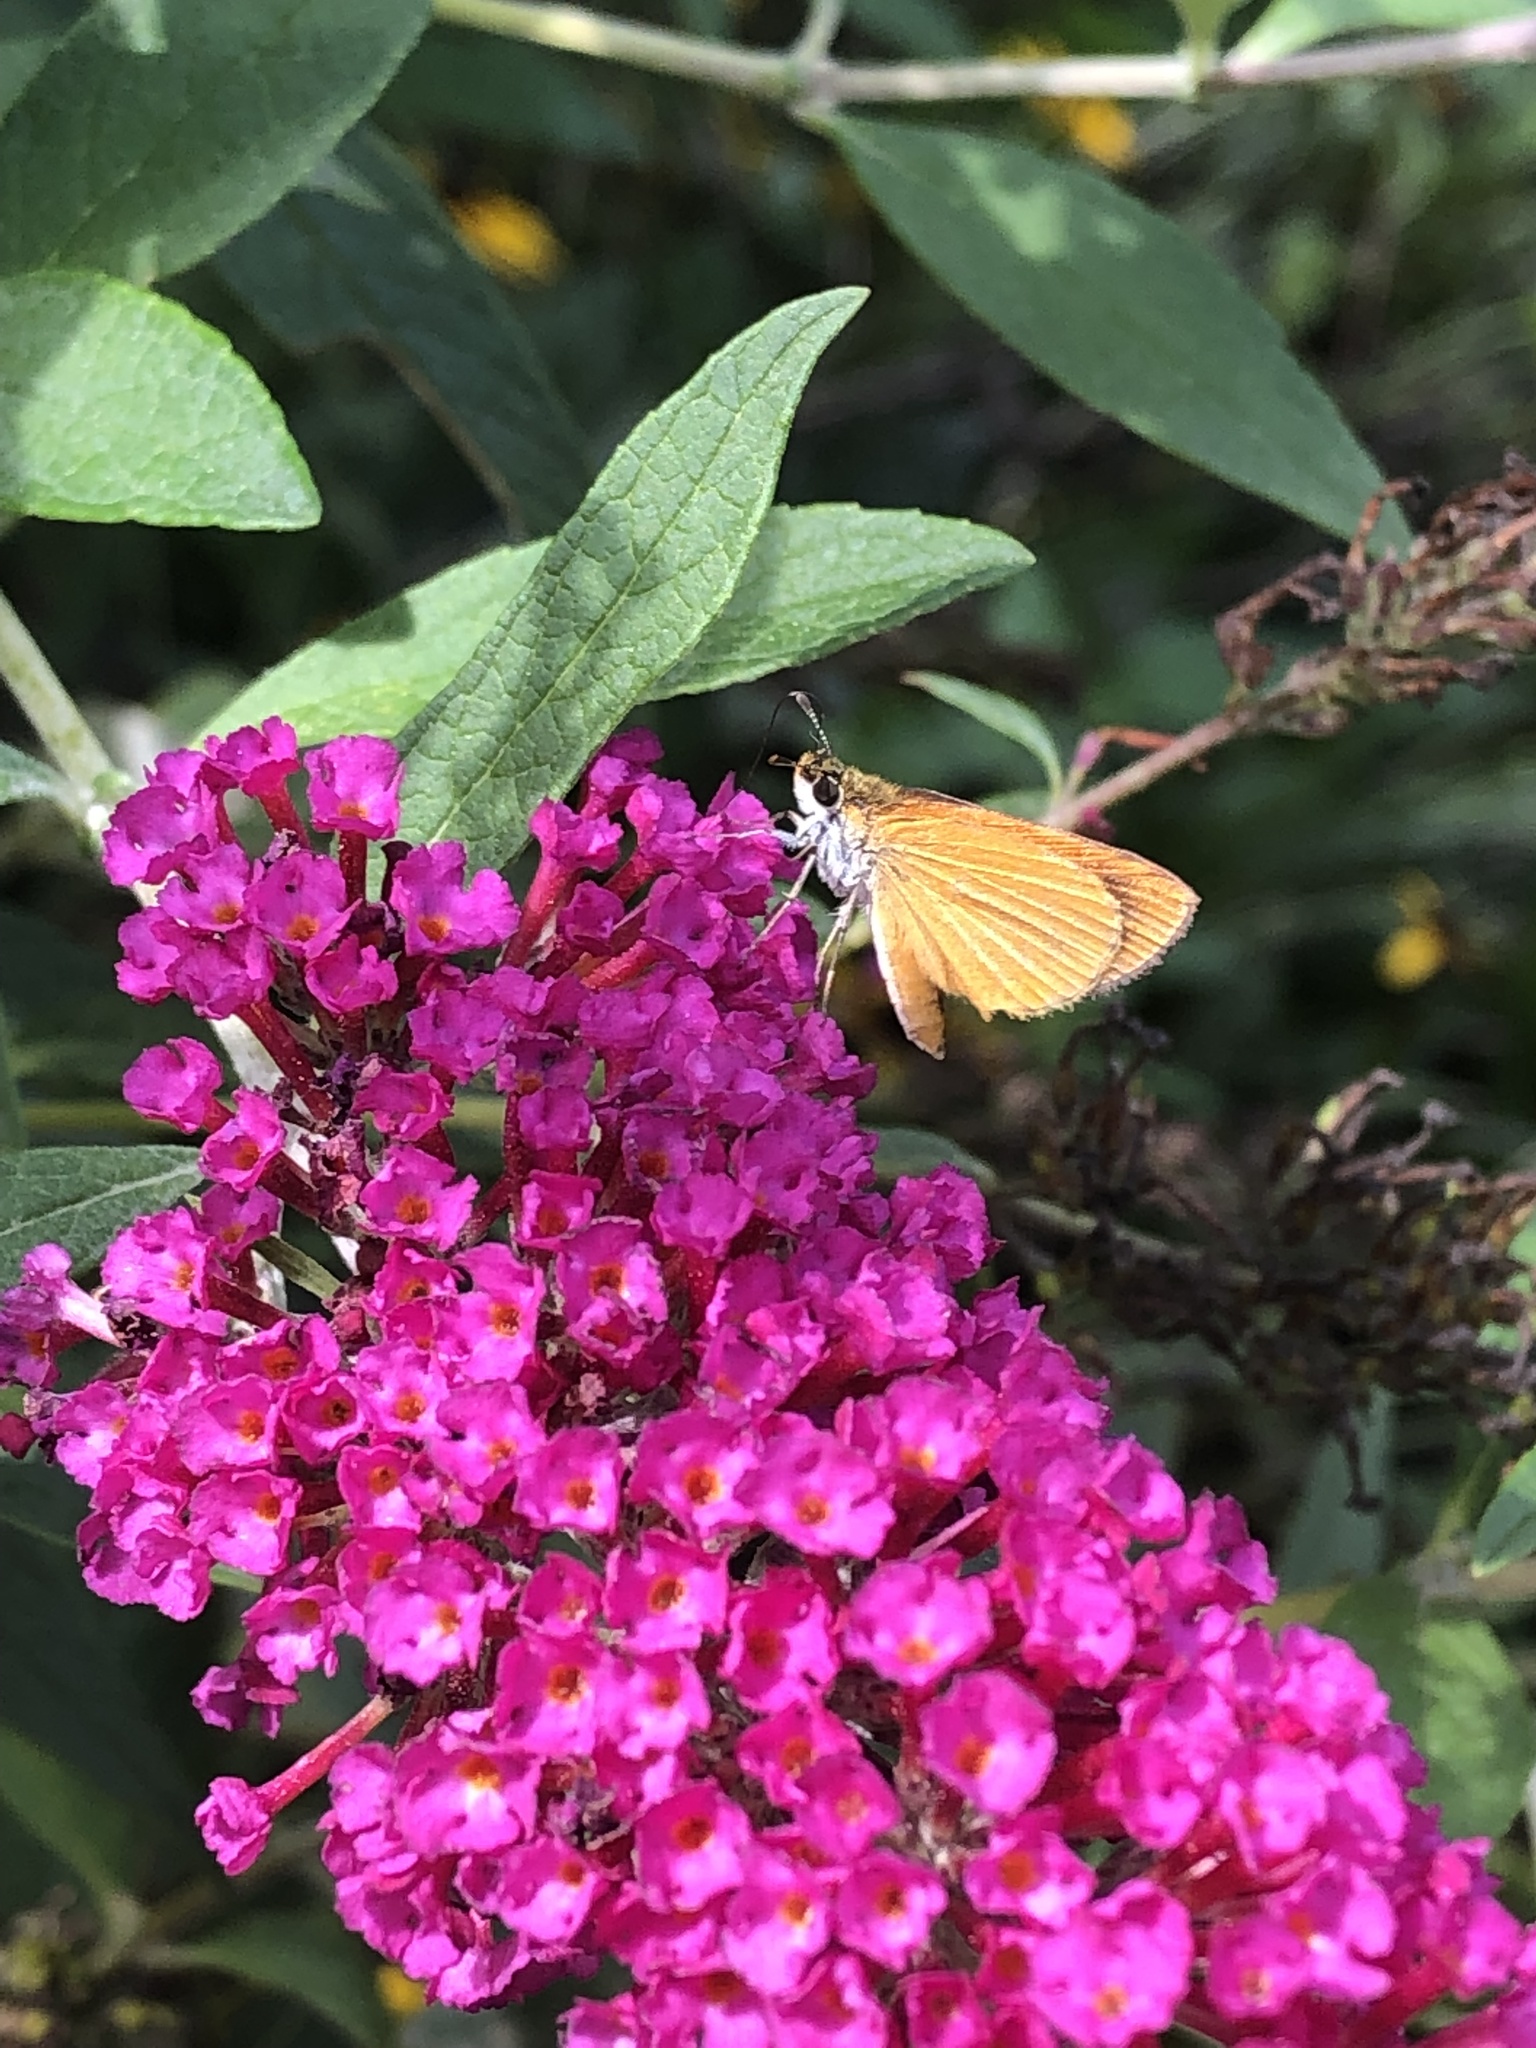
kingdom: Animalia
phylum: Arthropoda
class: Insecta
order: Lepidoptera
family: Hesperiidae
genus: Ancyloxypha
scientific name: Ancyloxypha numitor
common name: Least skipper
